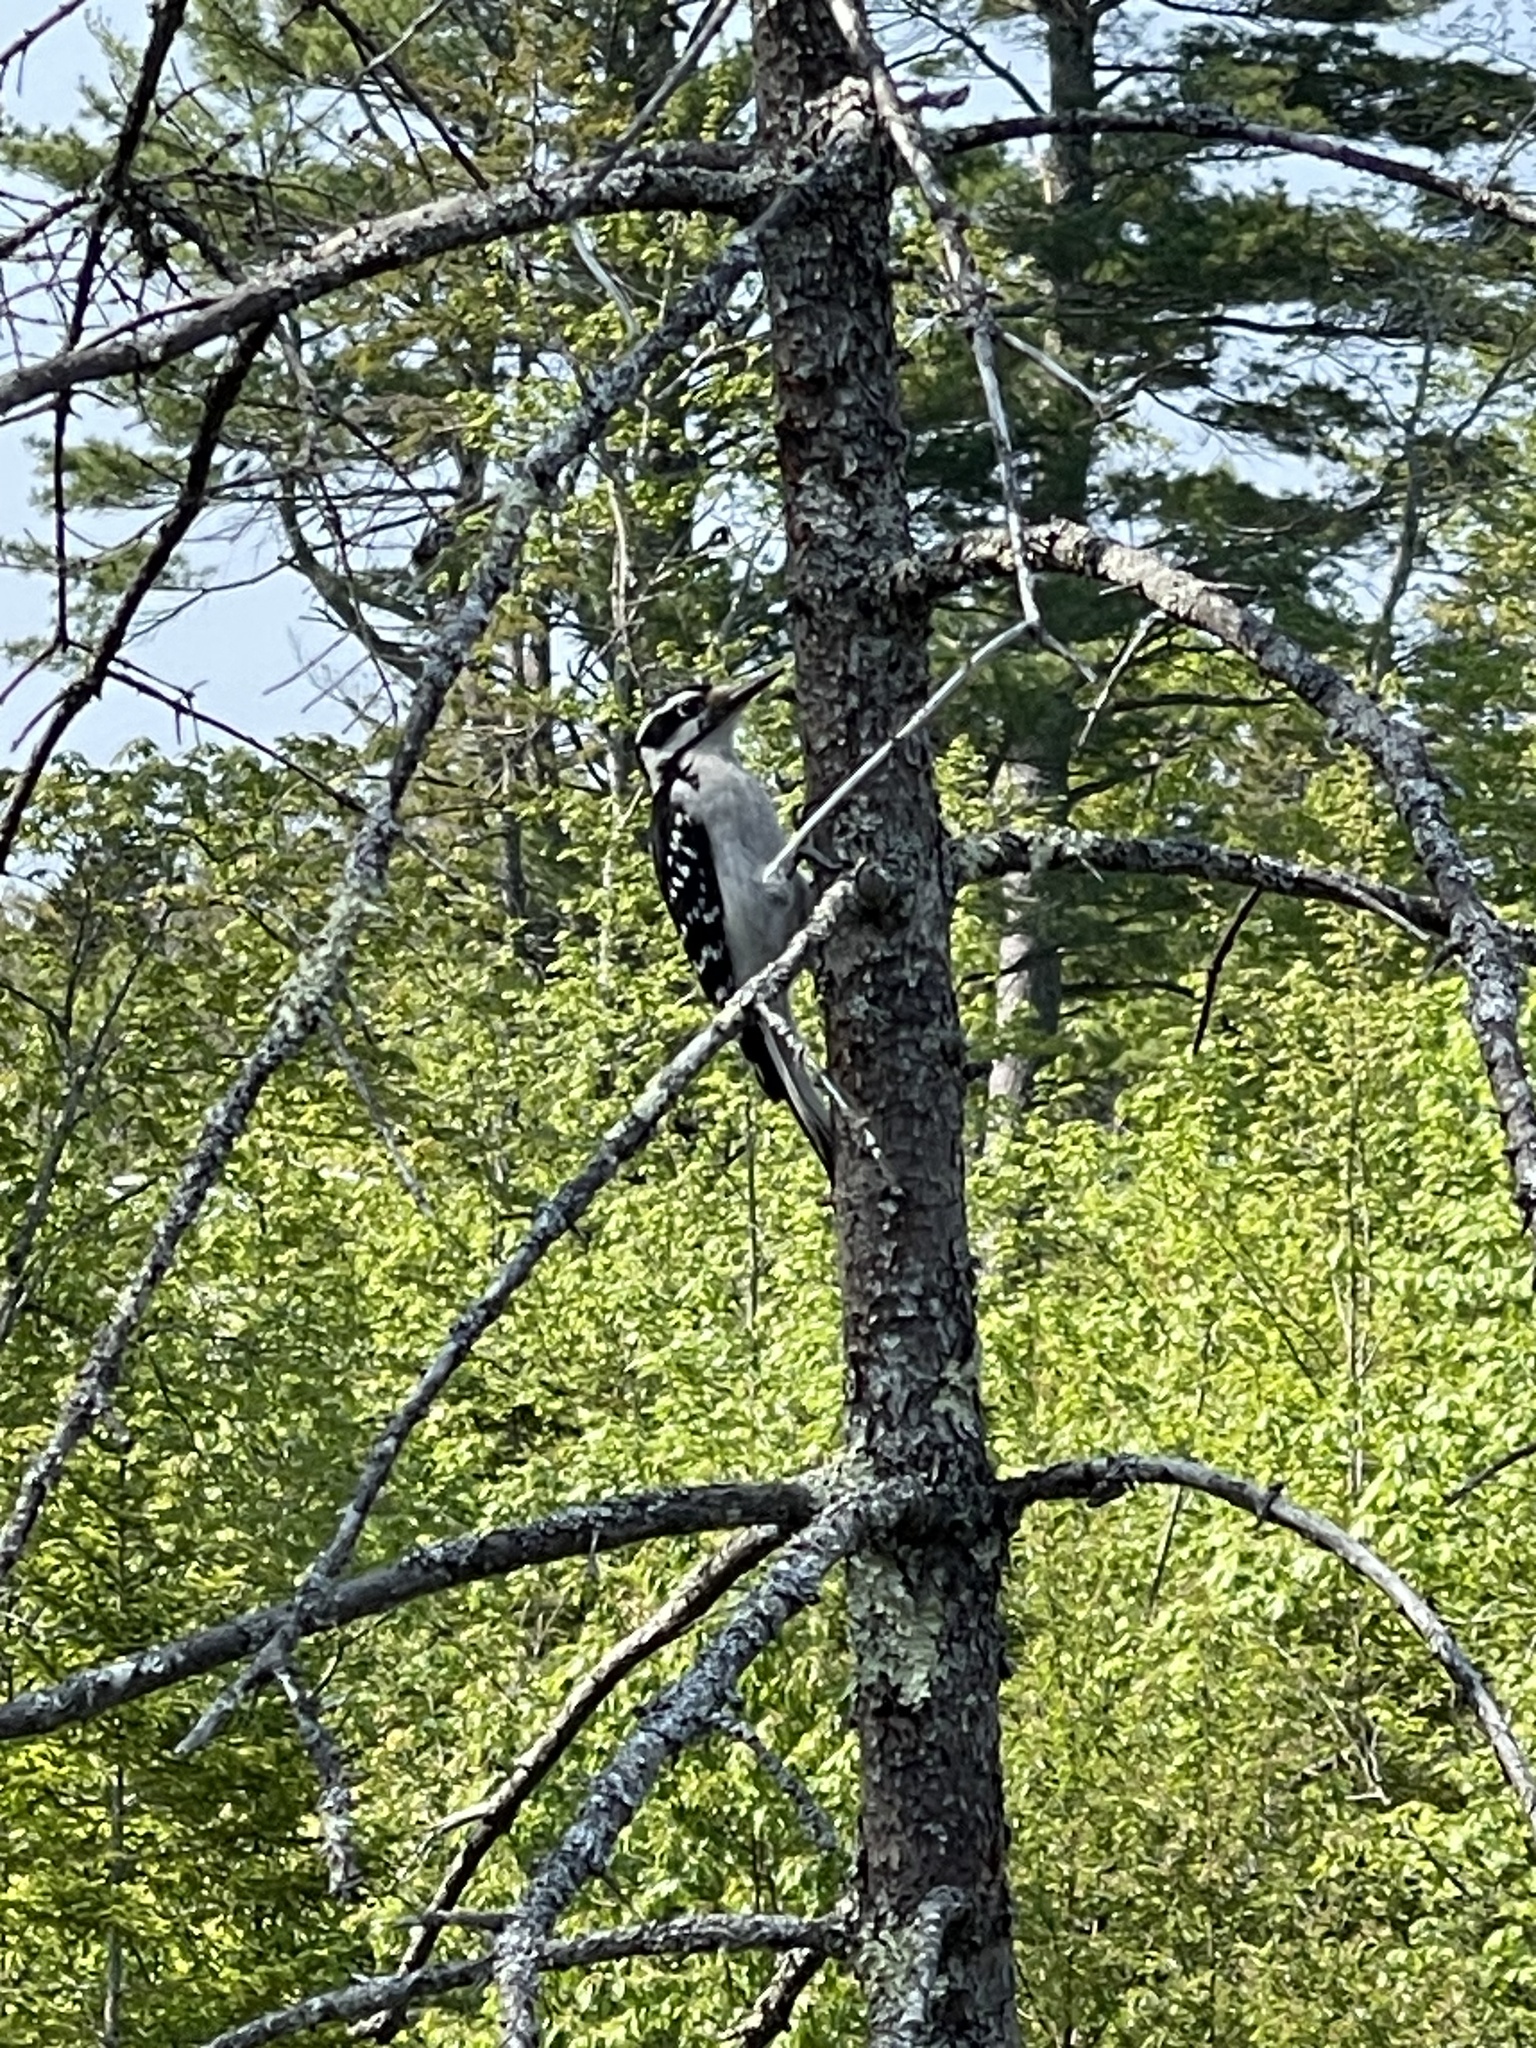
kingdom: Animalia
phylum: Chordata
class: Aves
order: Piciformes
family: Picidae
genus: Leuconotopicus
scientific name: Leuconotopicus villosus
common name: Hairy woodpecker
